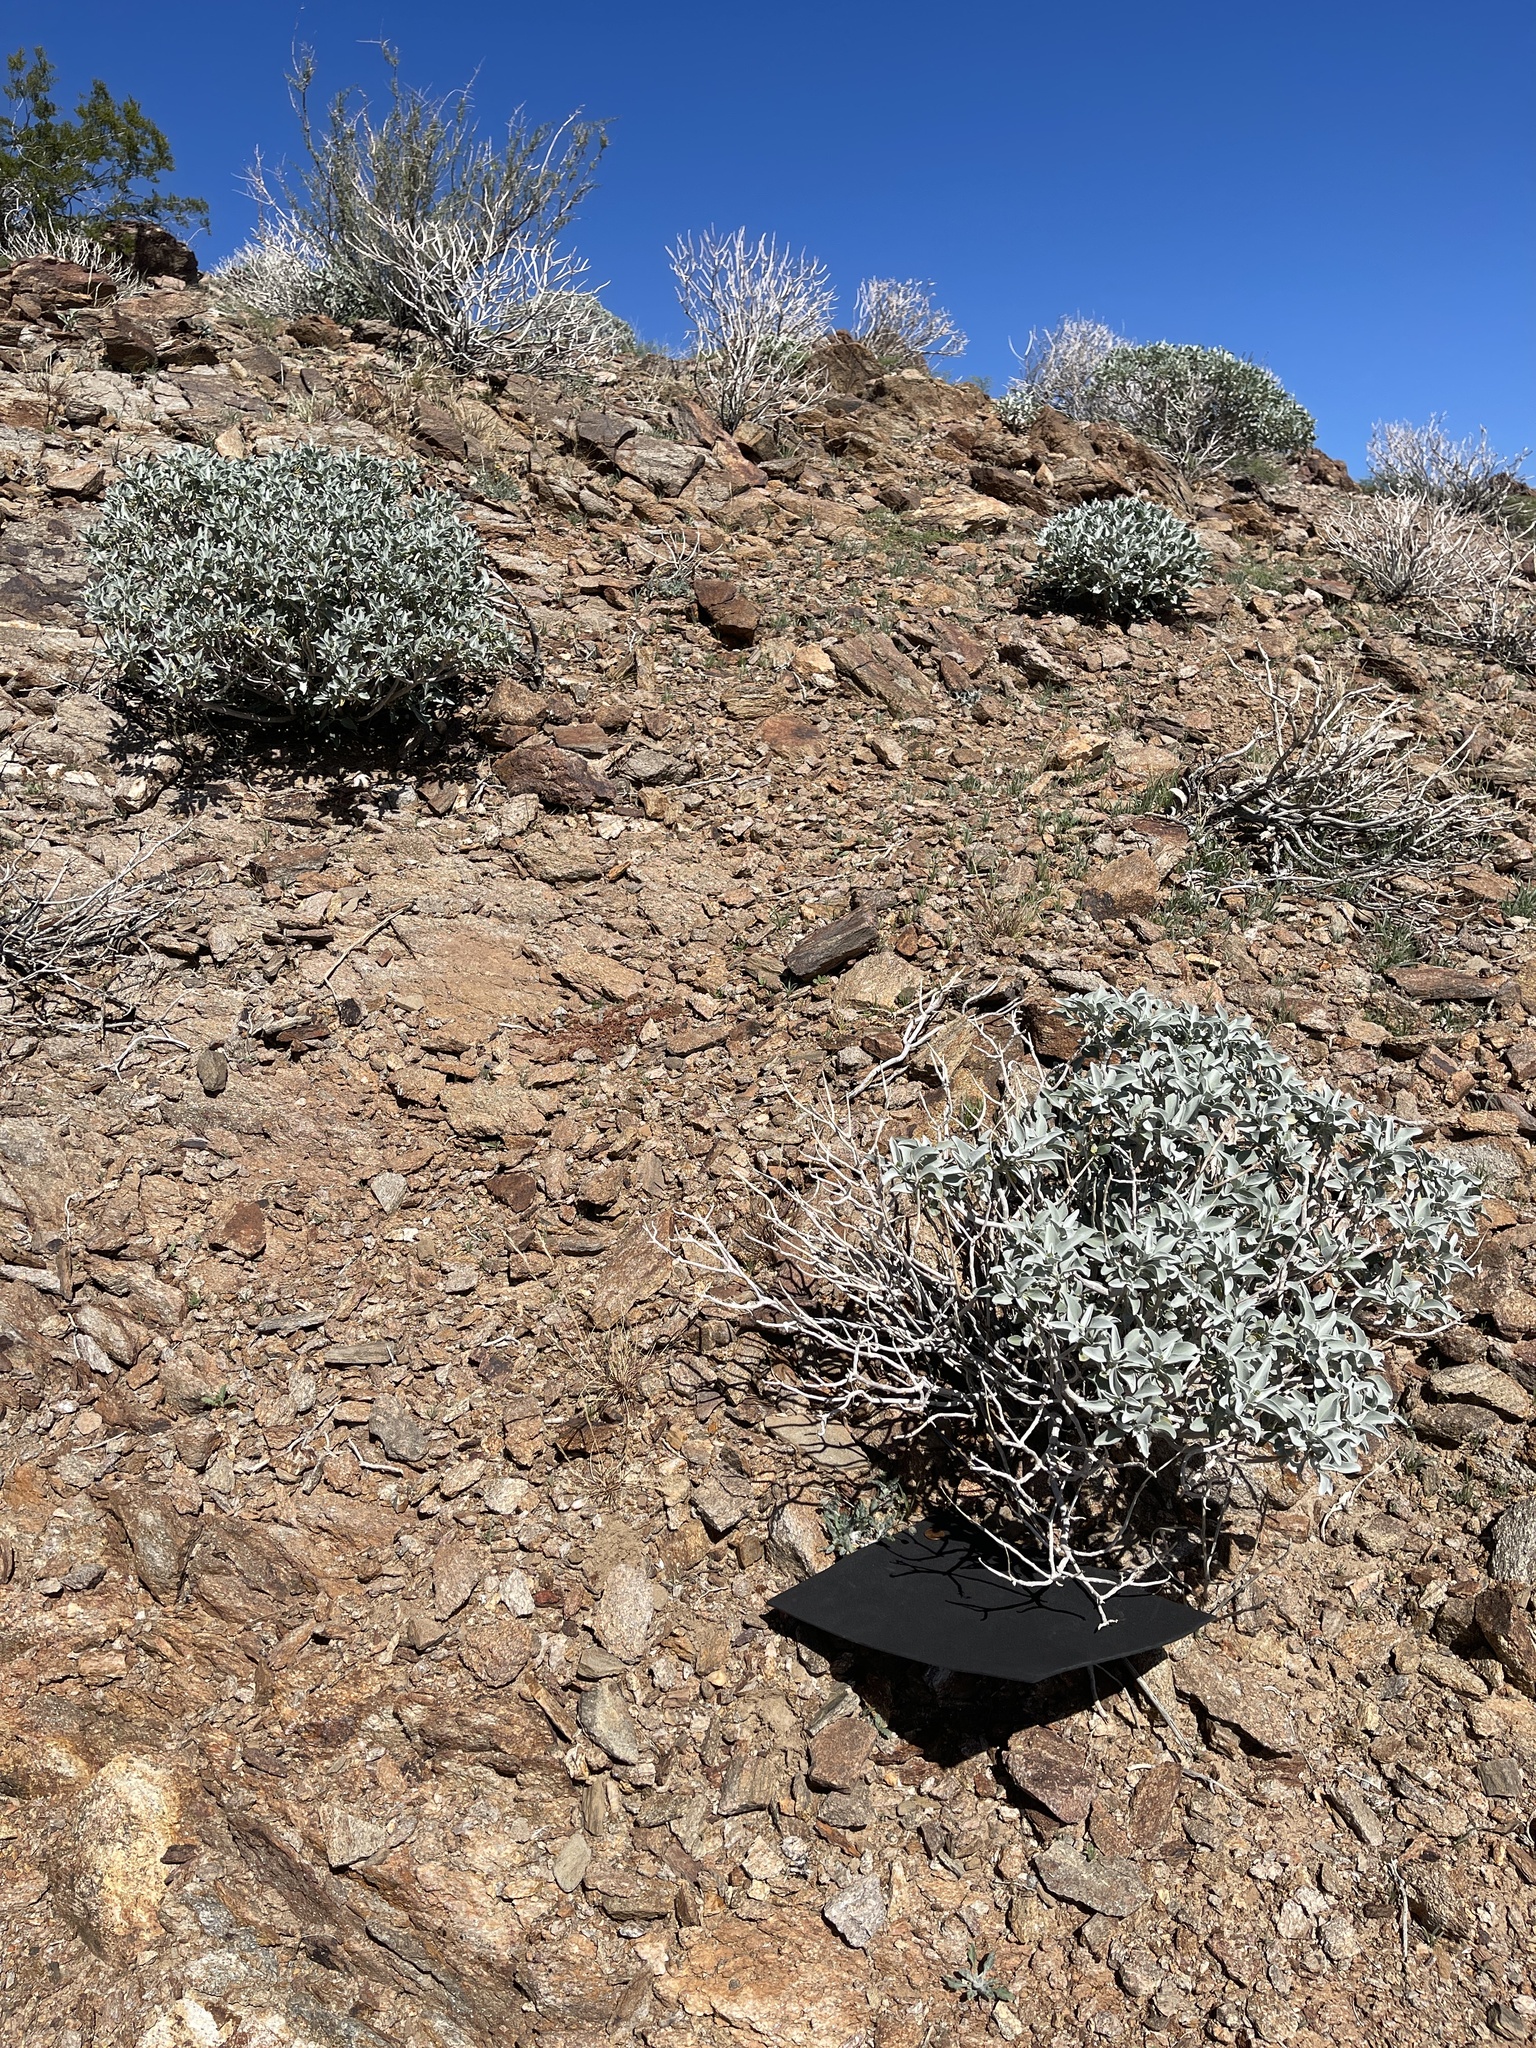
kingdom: Plantae
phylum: Tracheophyta
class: Magnoliopsida
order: Asterales
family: Asteraceae
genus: Trichoptilium
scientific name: Trichoptilium incisum
